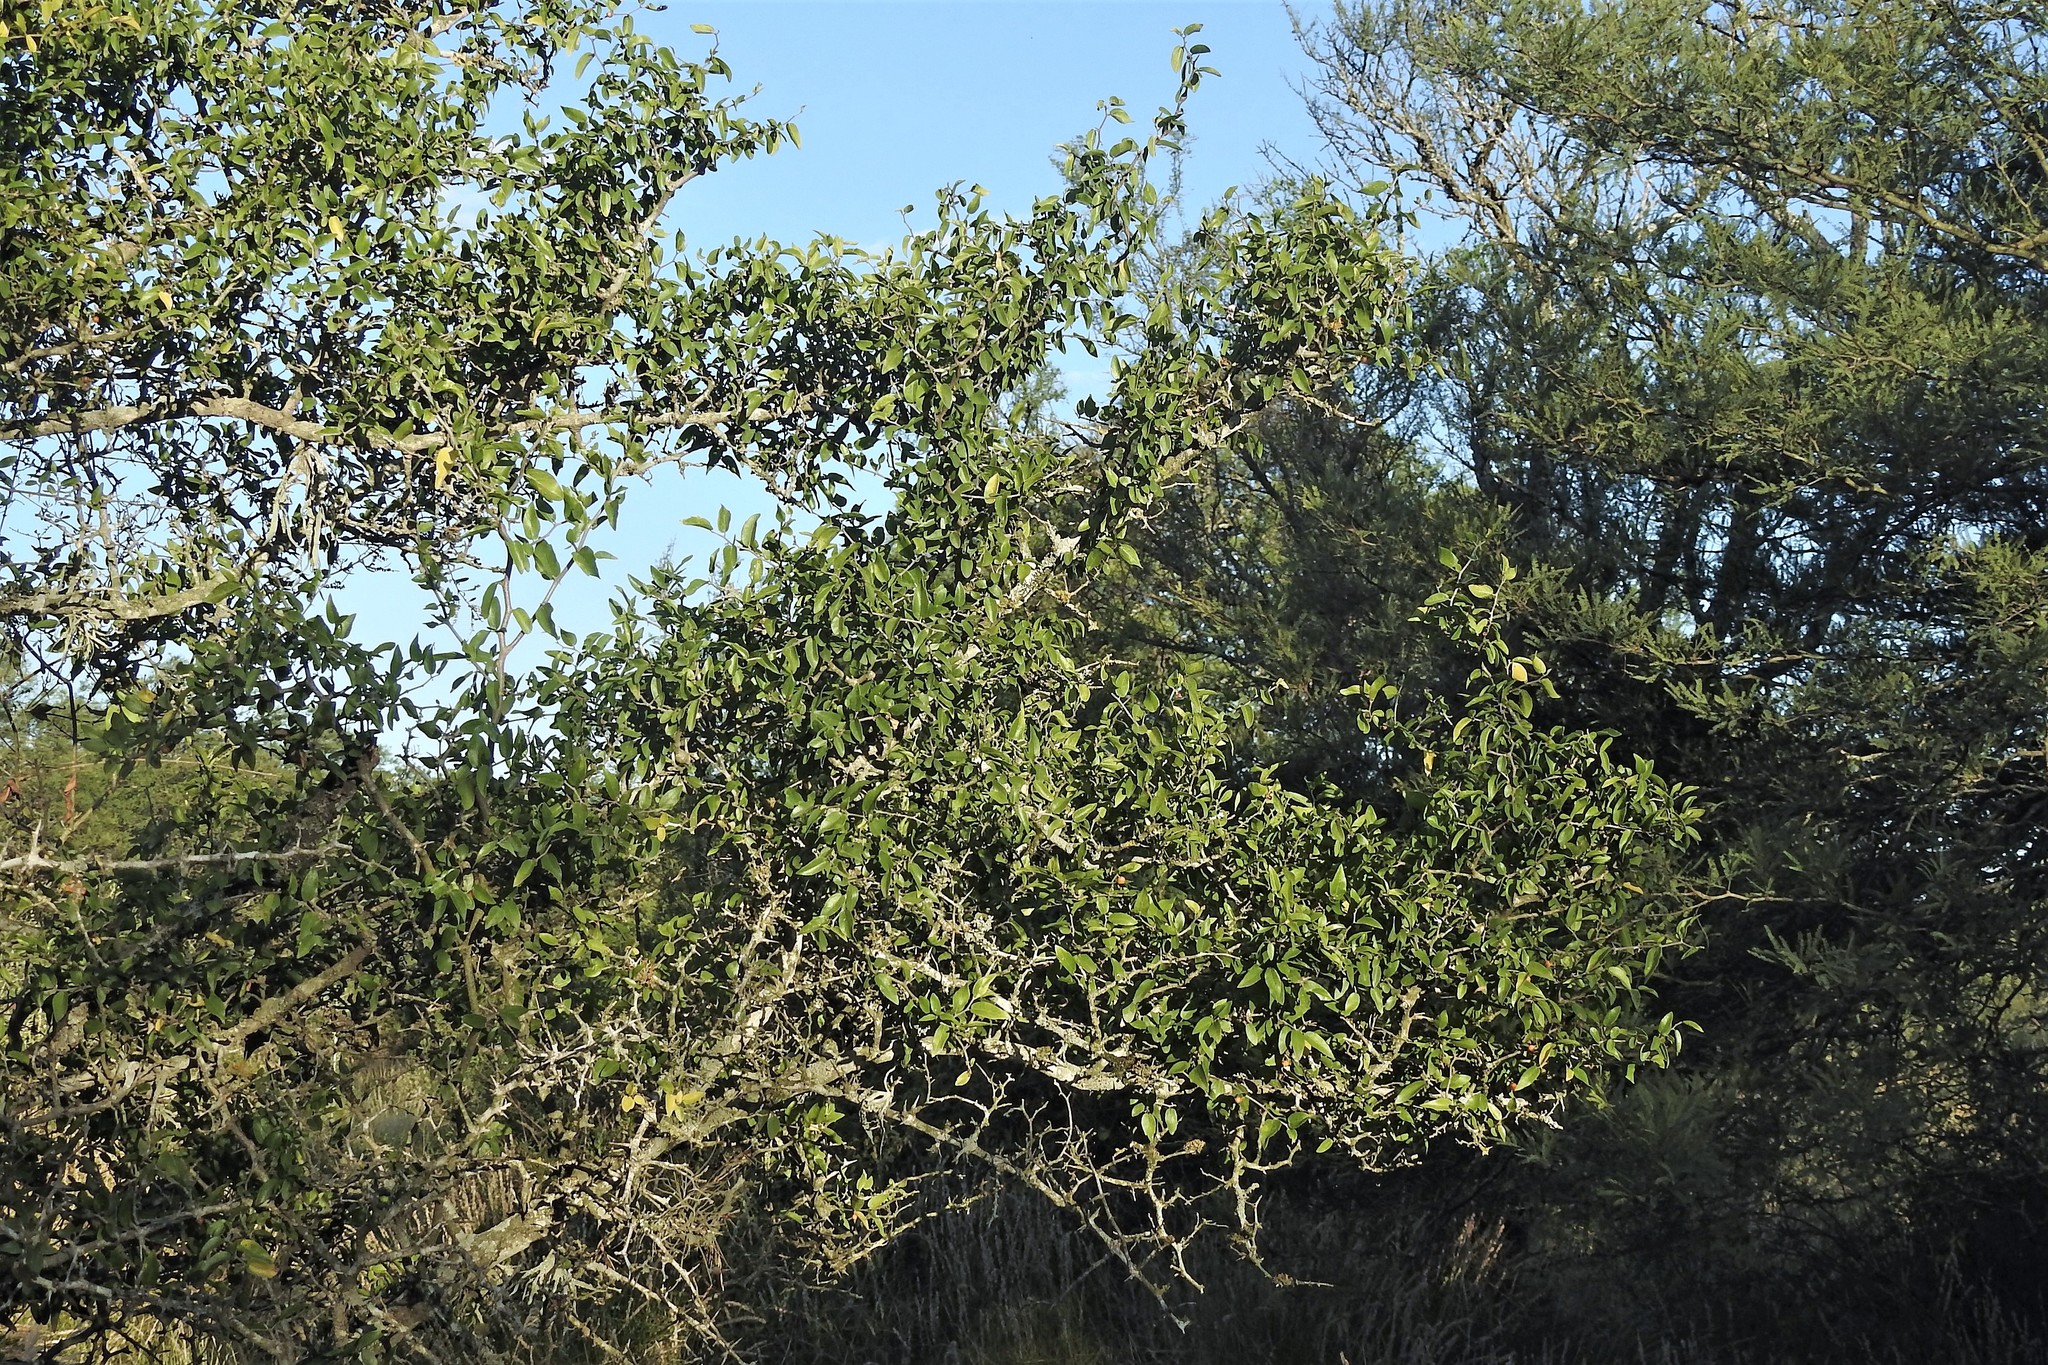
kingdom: Plantae
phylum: Tracheophyta
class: Magnoliopsida
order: Rosales
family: Cannabaceae
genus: Celtis
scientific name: Celtis tala
